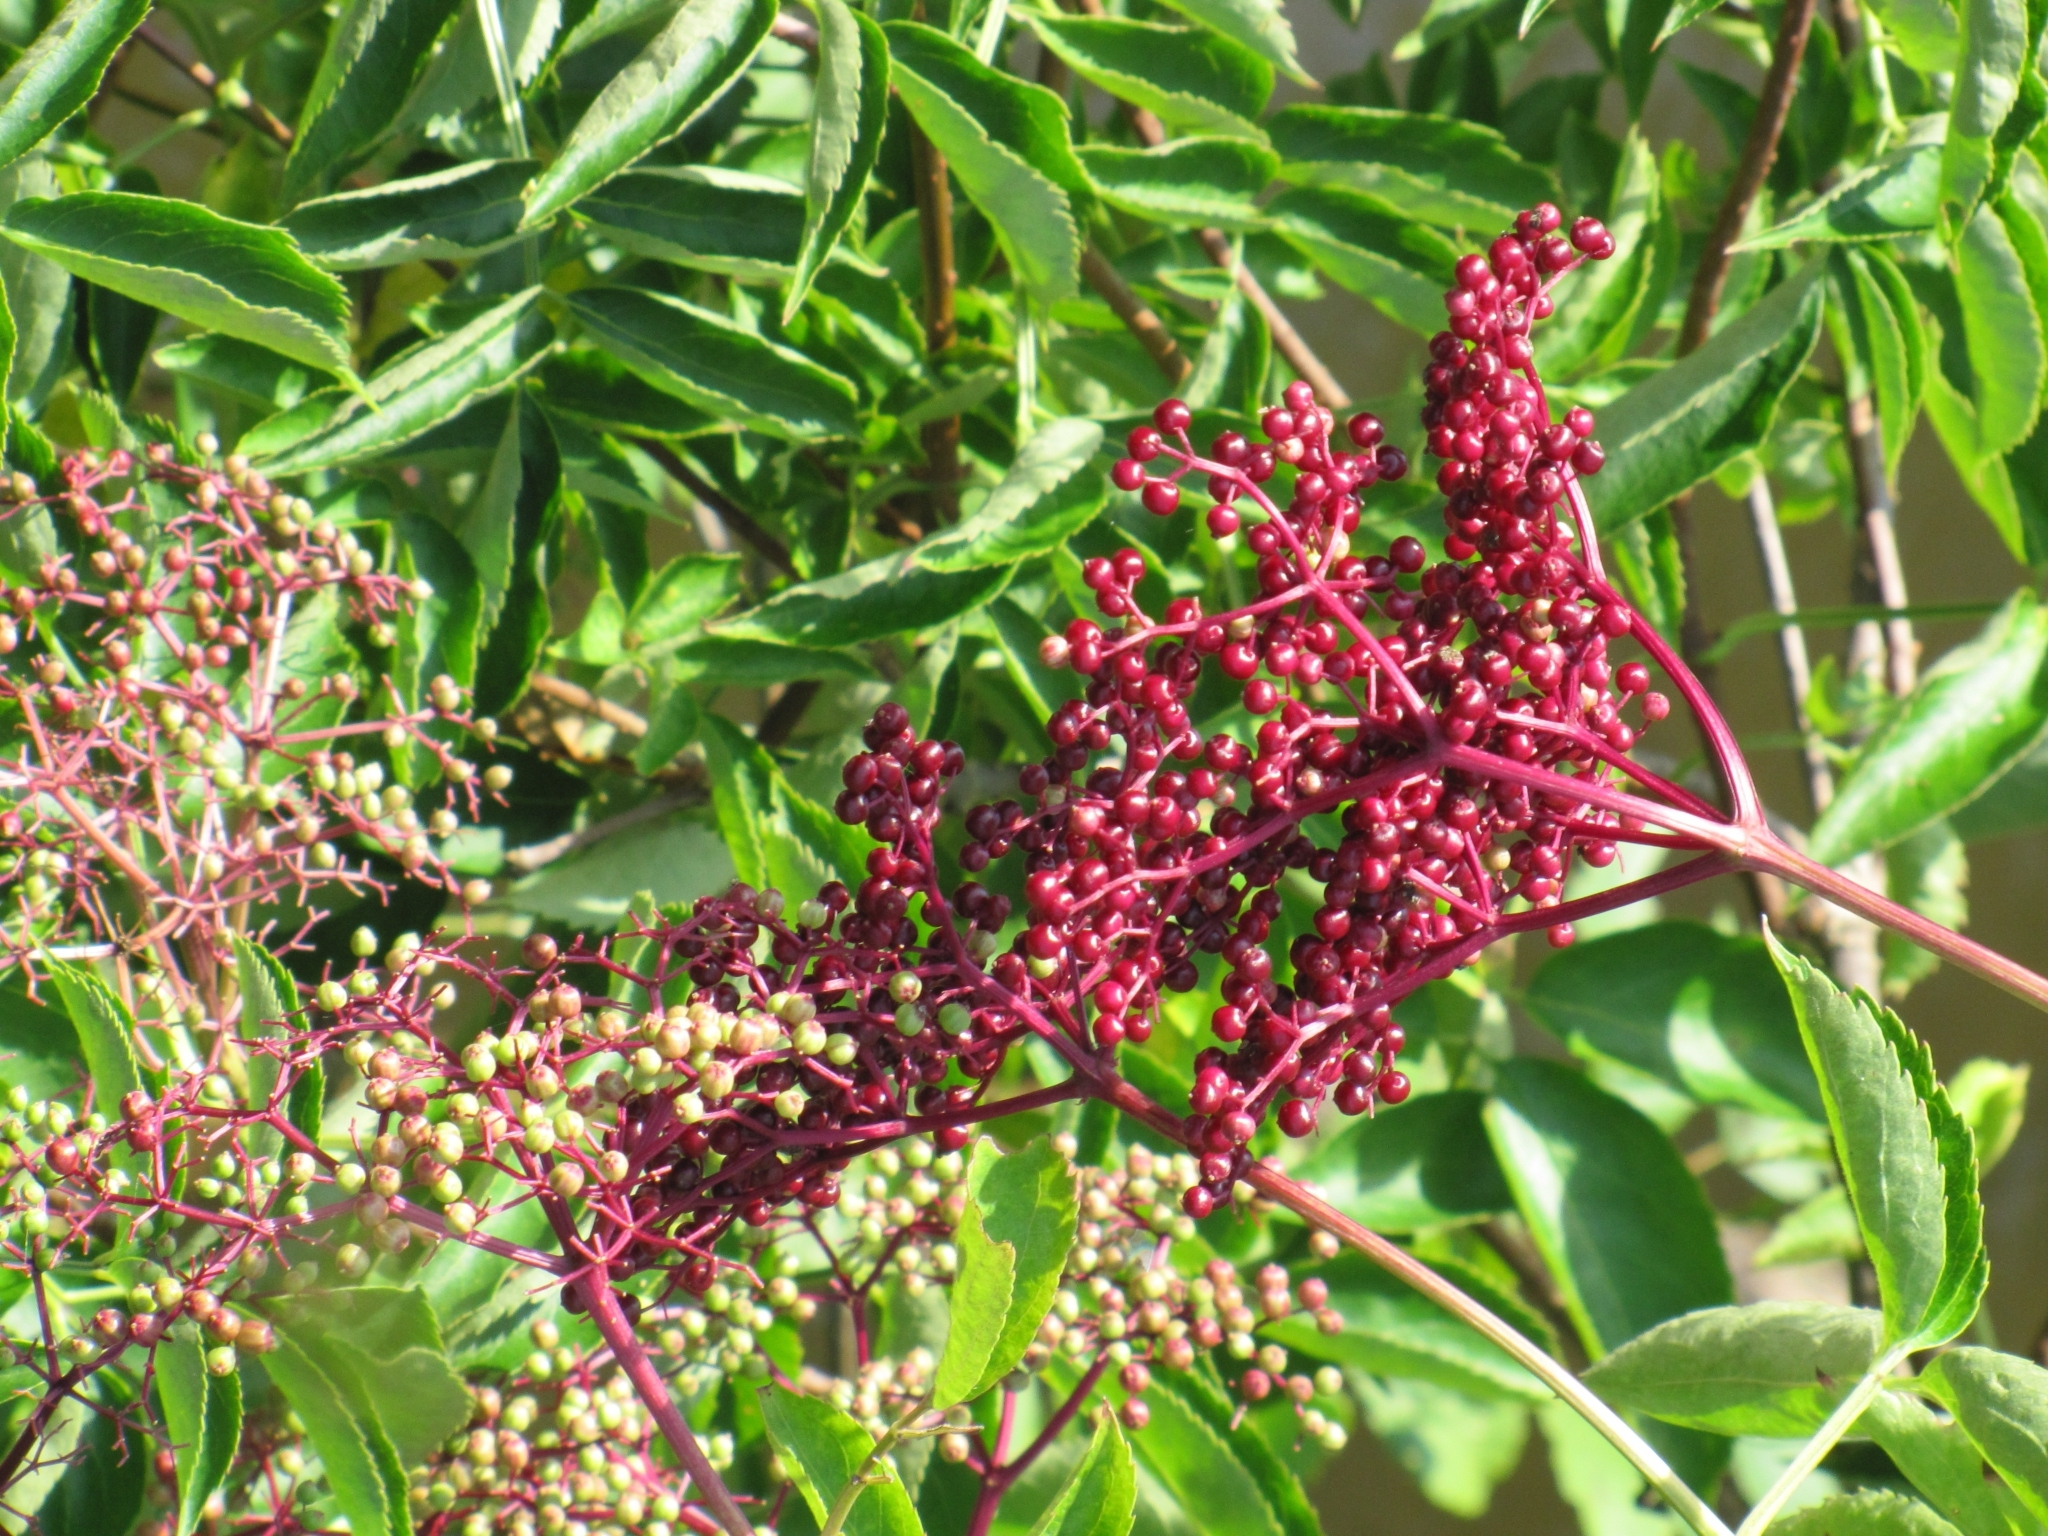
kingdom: Plantae
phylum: Tracheophyta
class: Magnoliopsida
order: Dipsacales
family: Viburnaceae
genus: Sambucus
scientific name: Sambucus canadensis
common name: American elder
